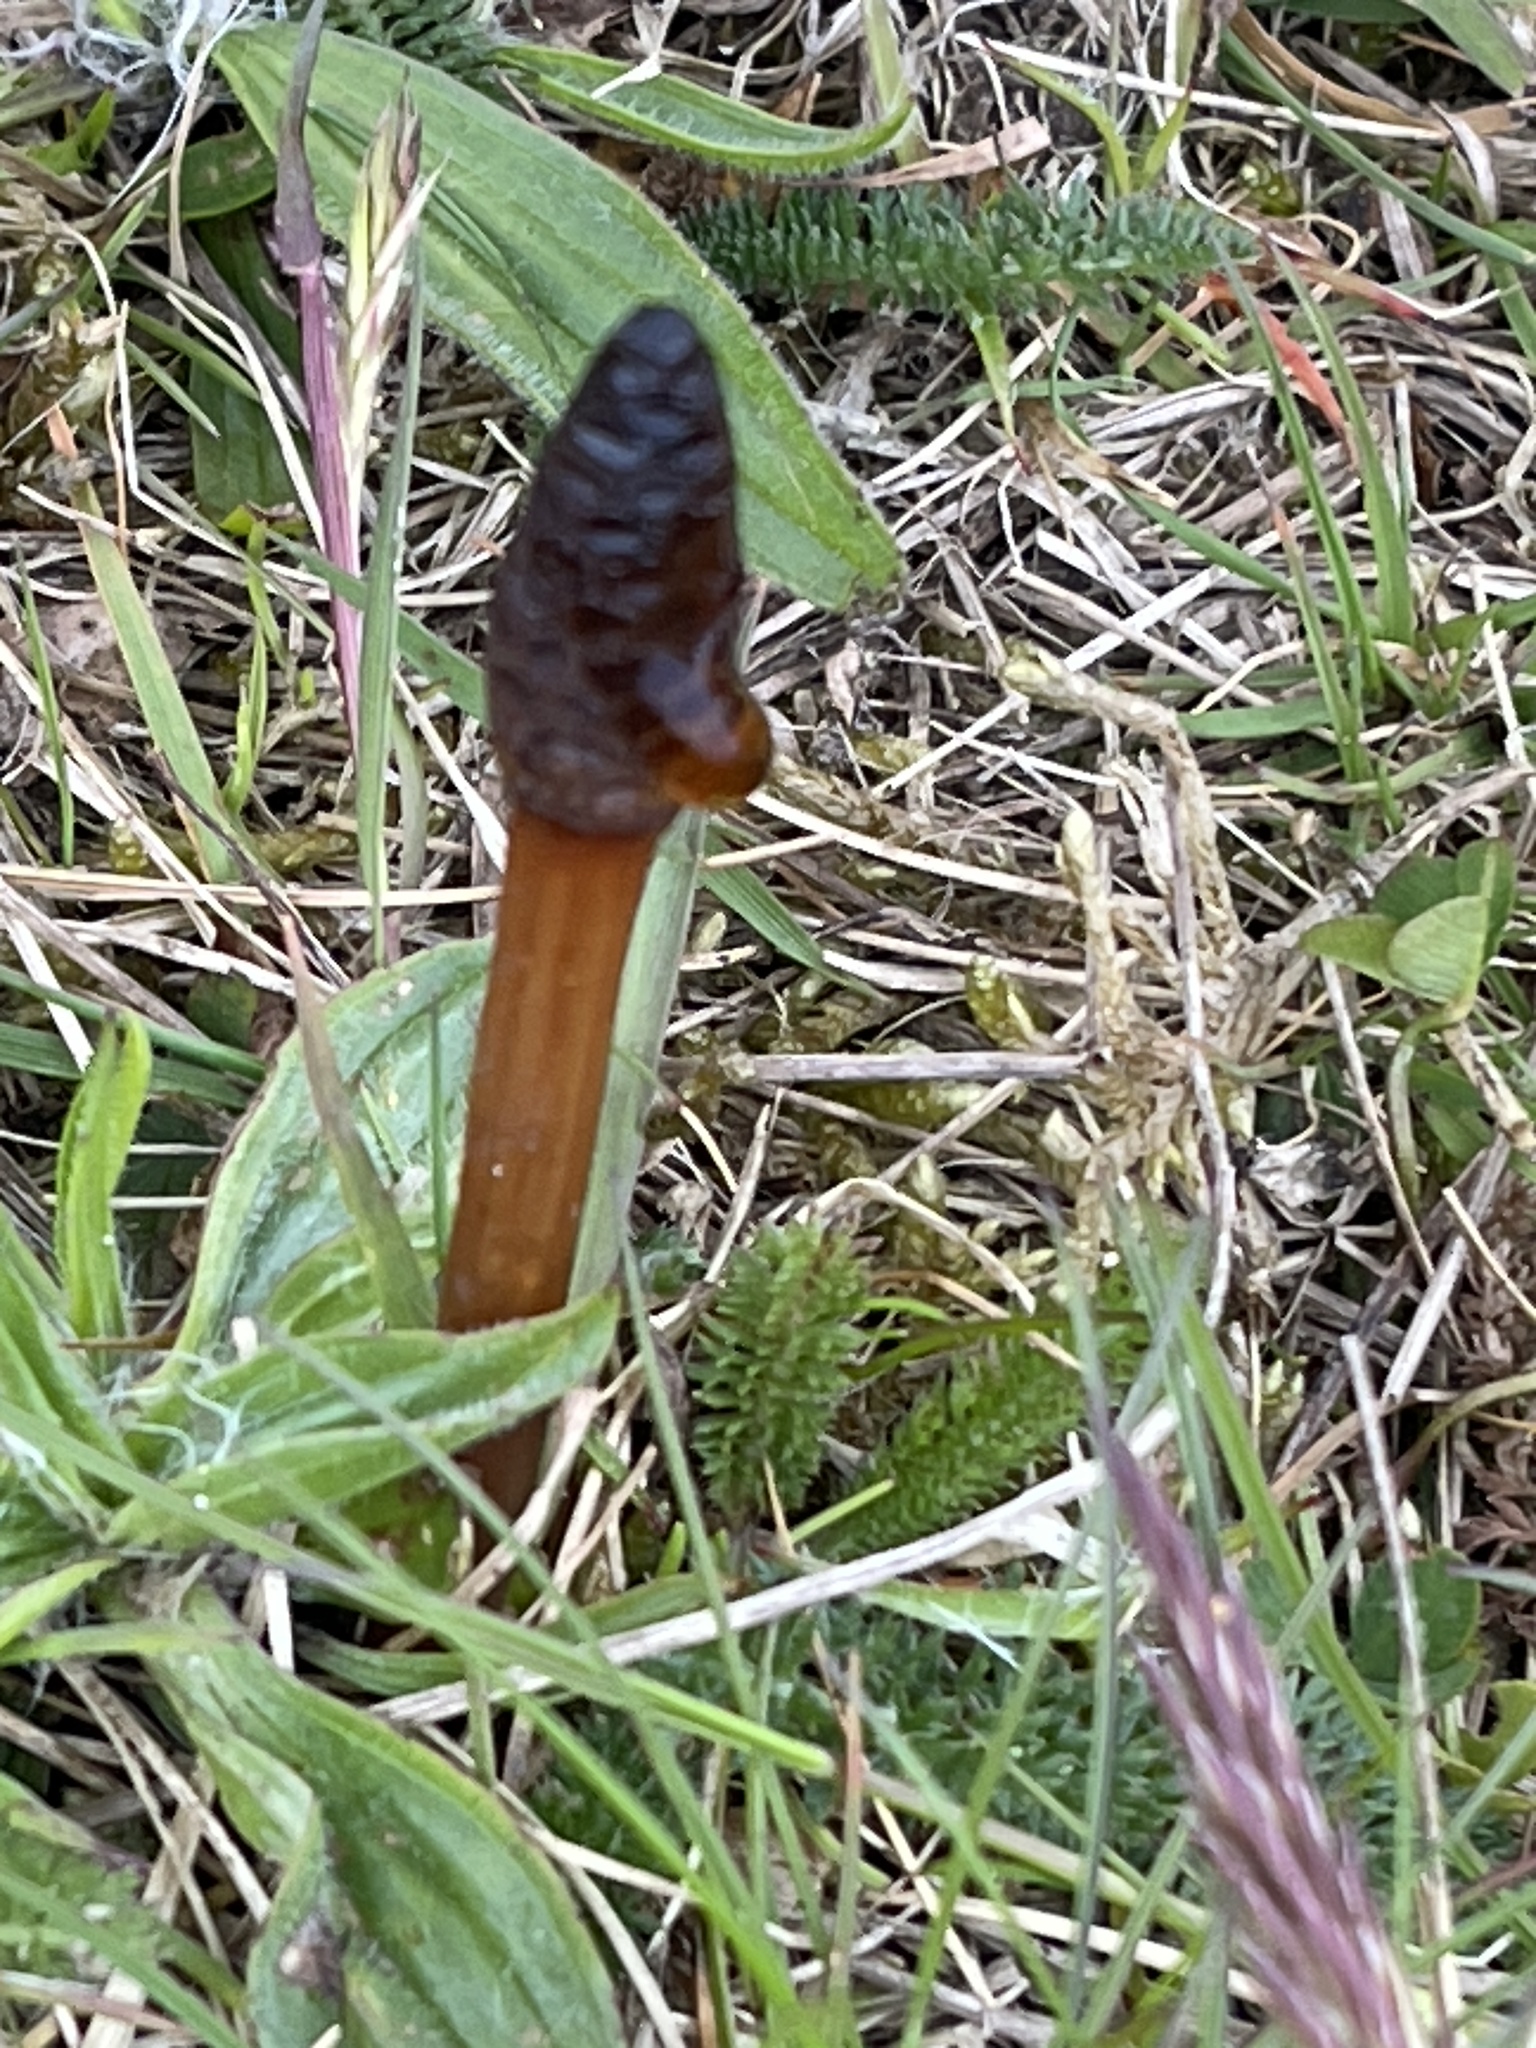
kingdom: Plantae
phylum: Tracheophyta
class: Polypodiopsida
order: Equisetales
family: Equisetaceae
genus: Equisetum
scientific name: Equisetum arvense
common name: Field horsetail
